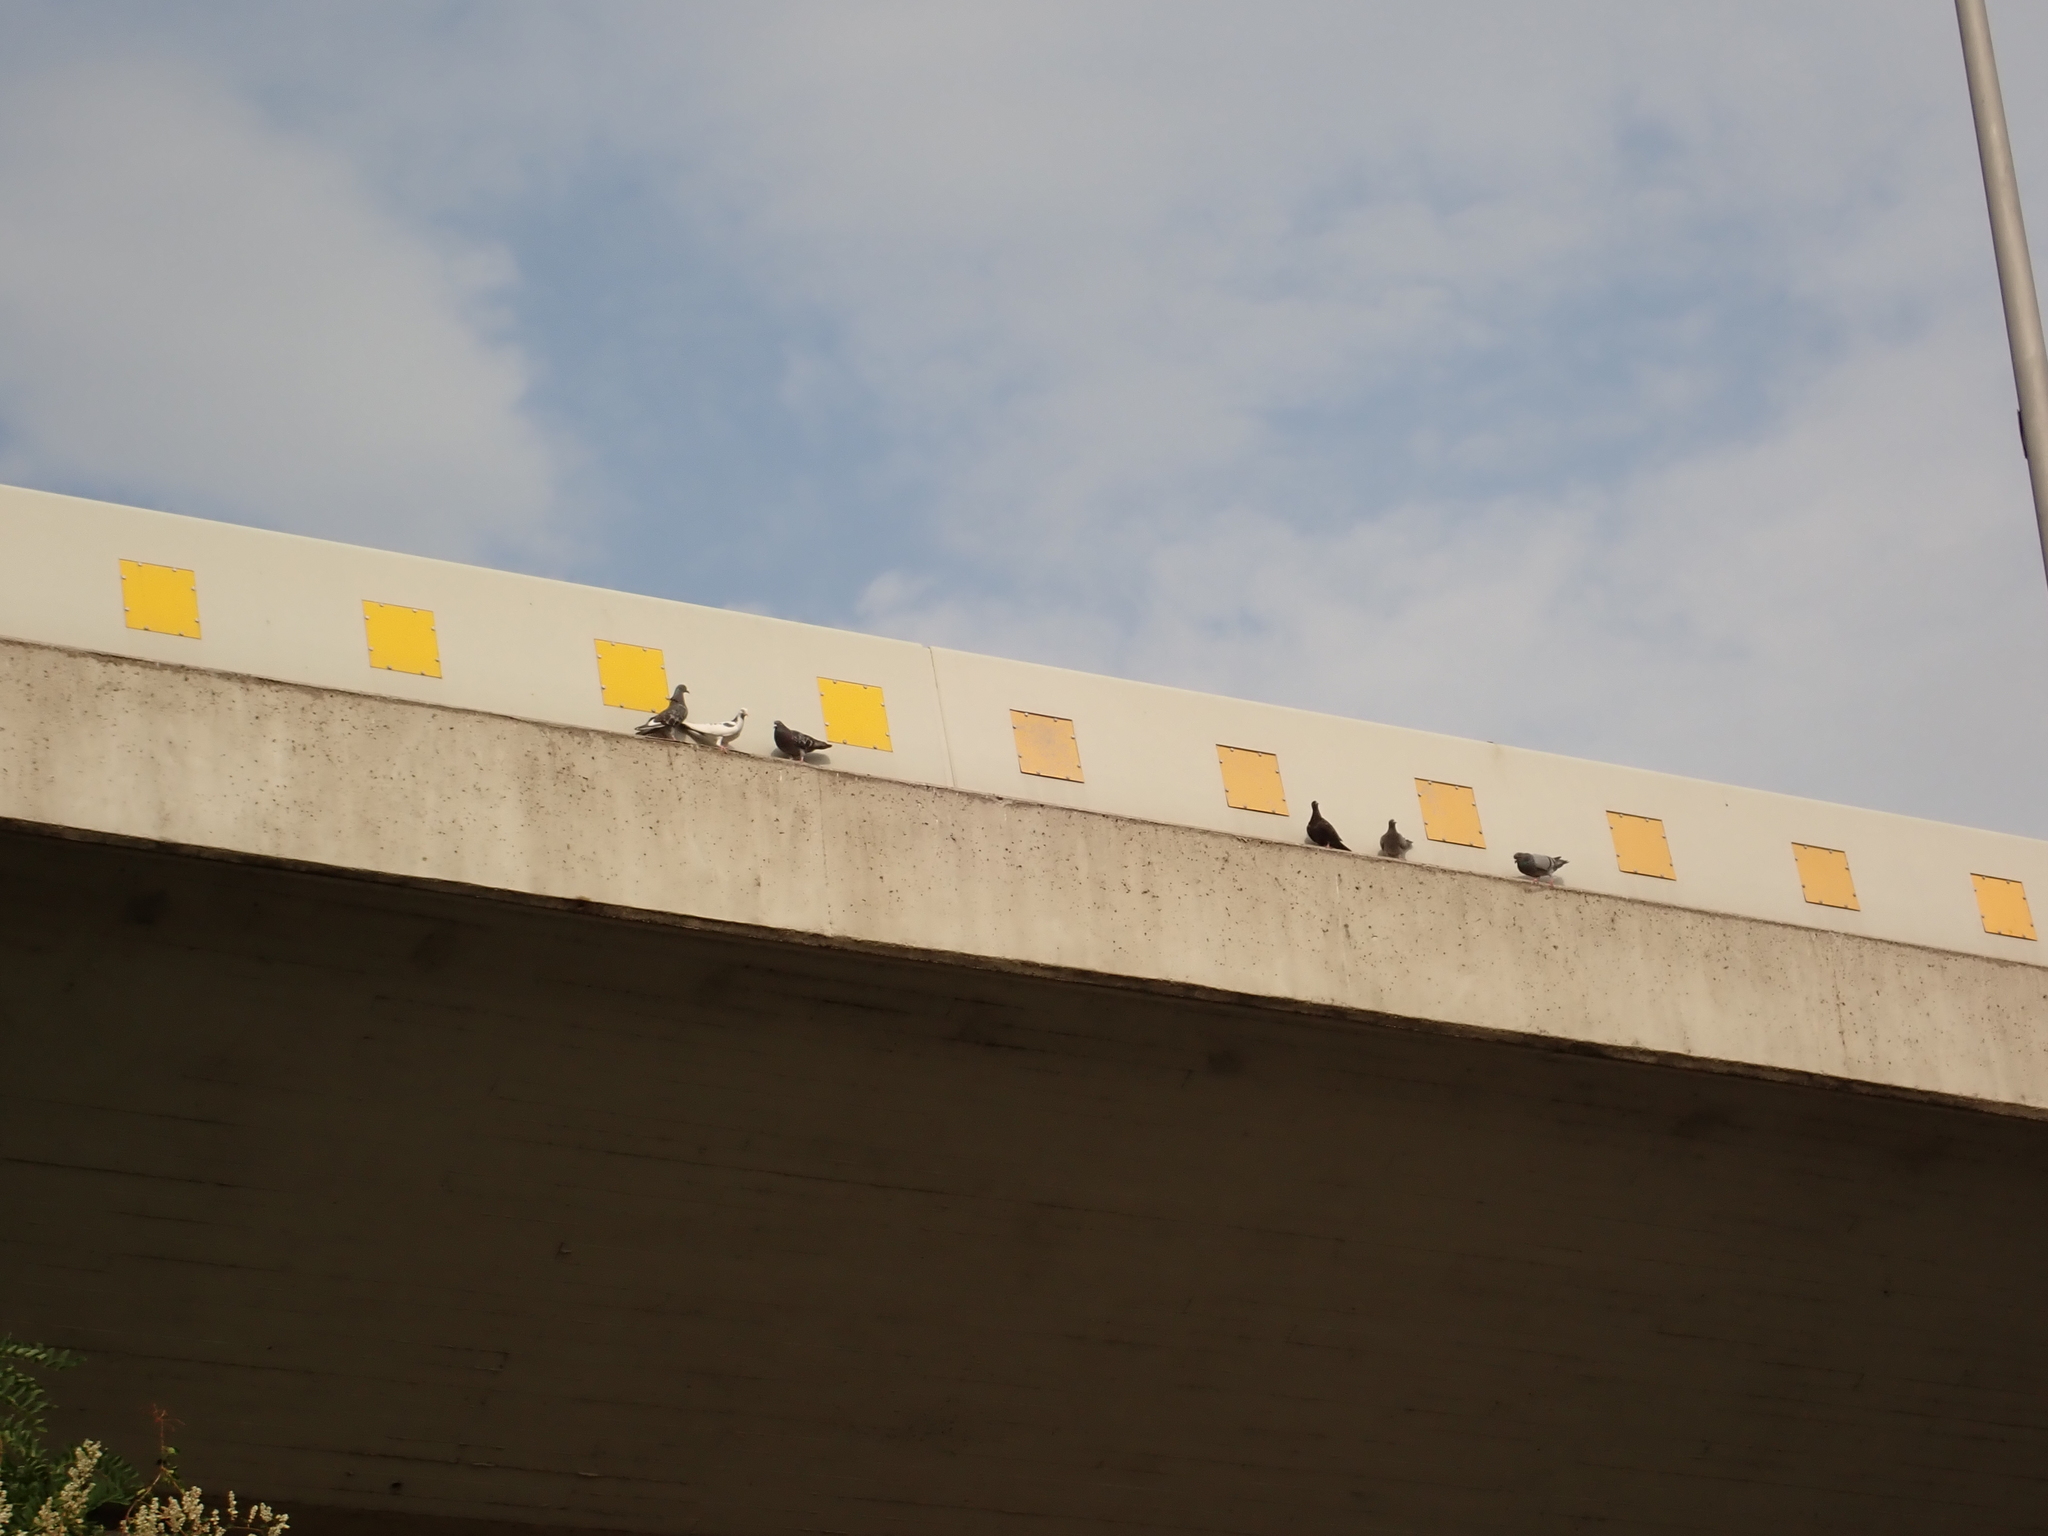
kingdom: Animalia
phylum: Chordata
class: Aves
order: Columbiformes
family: Columbidae
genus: Columba
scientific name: Columba livia
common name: Rock pigeon
